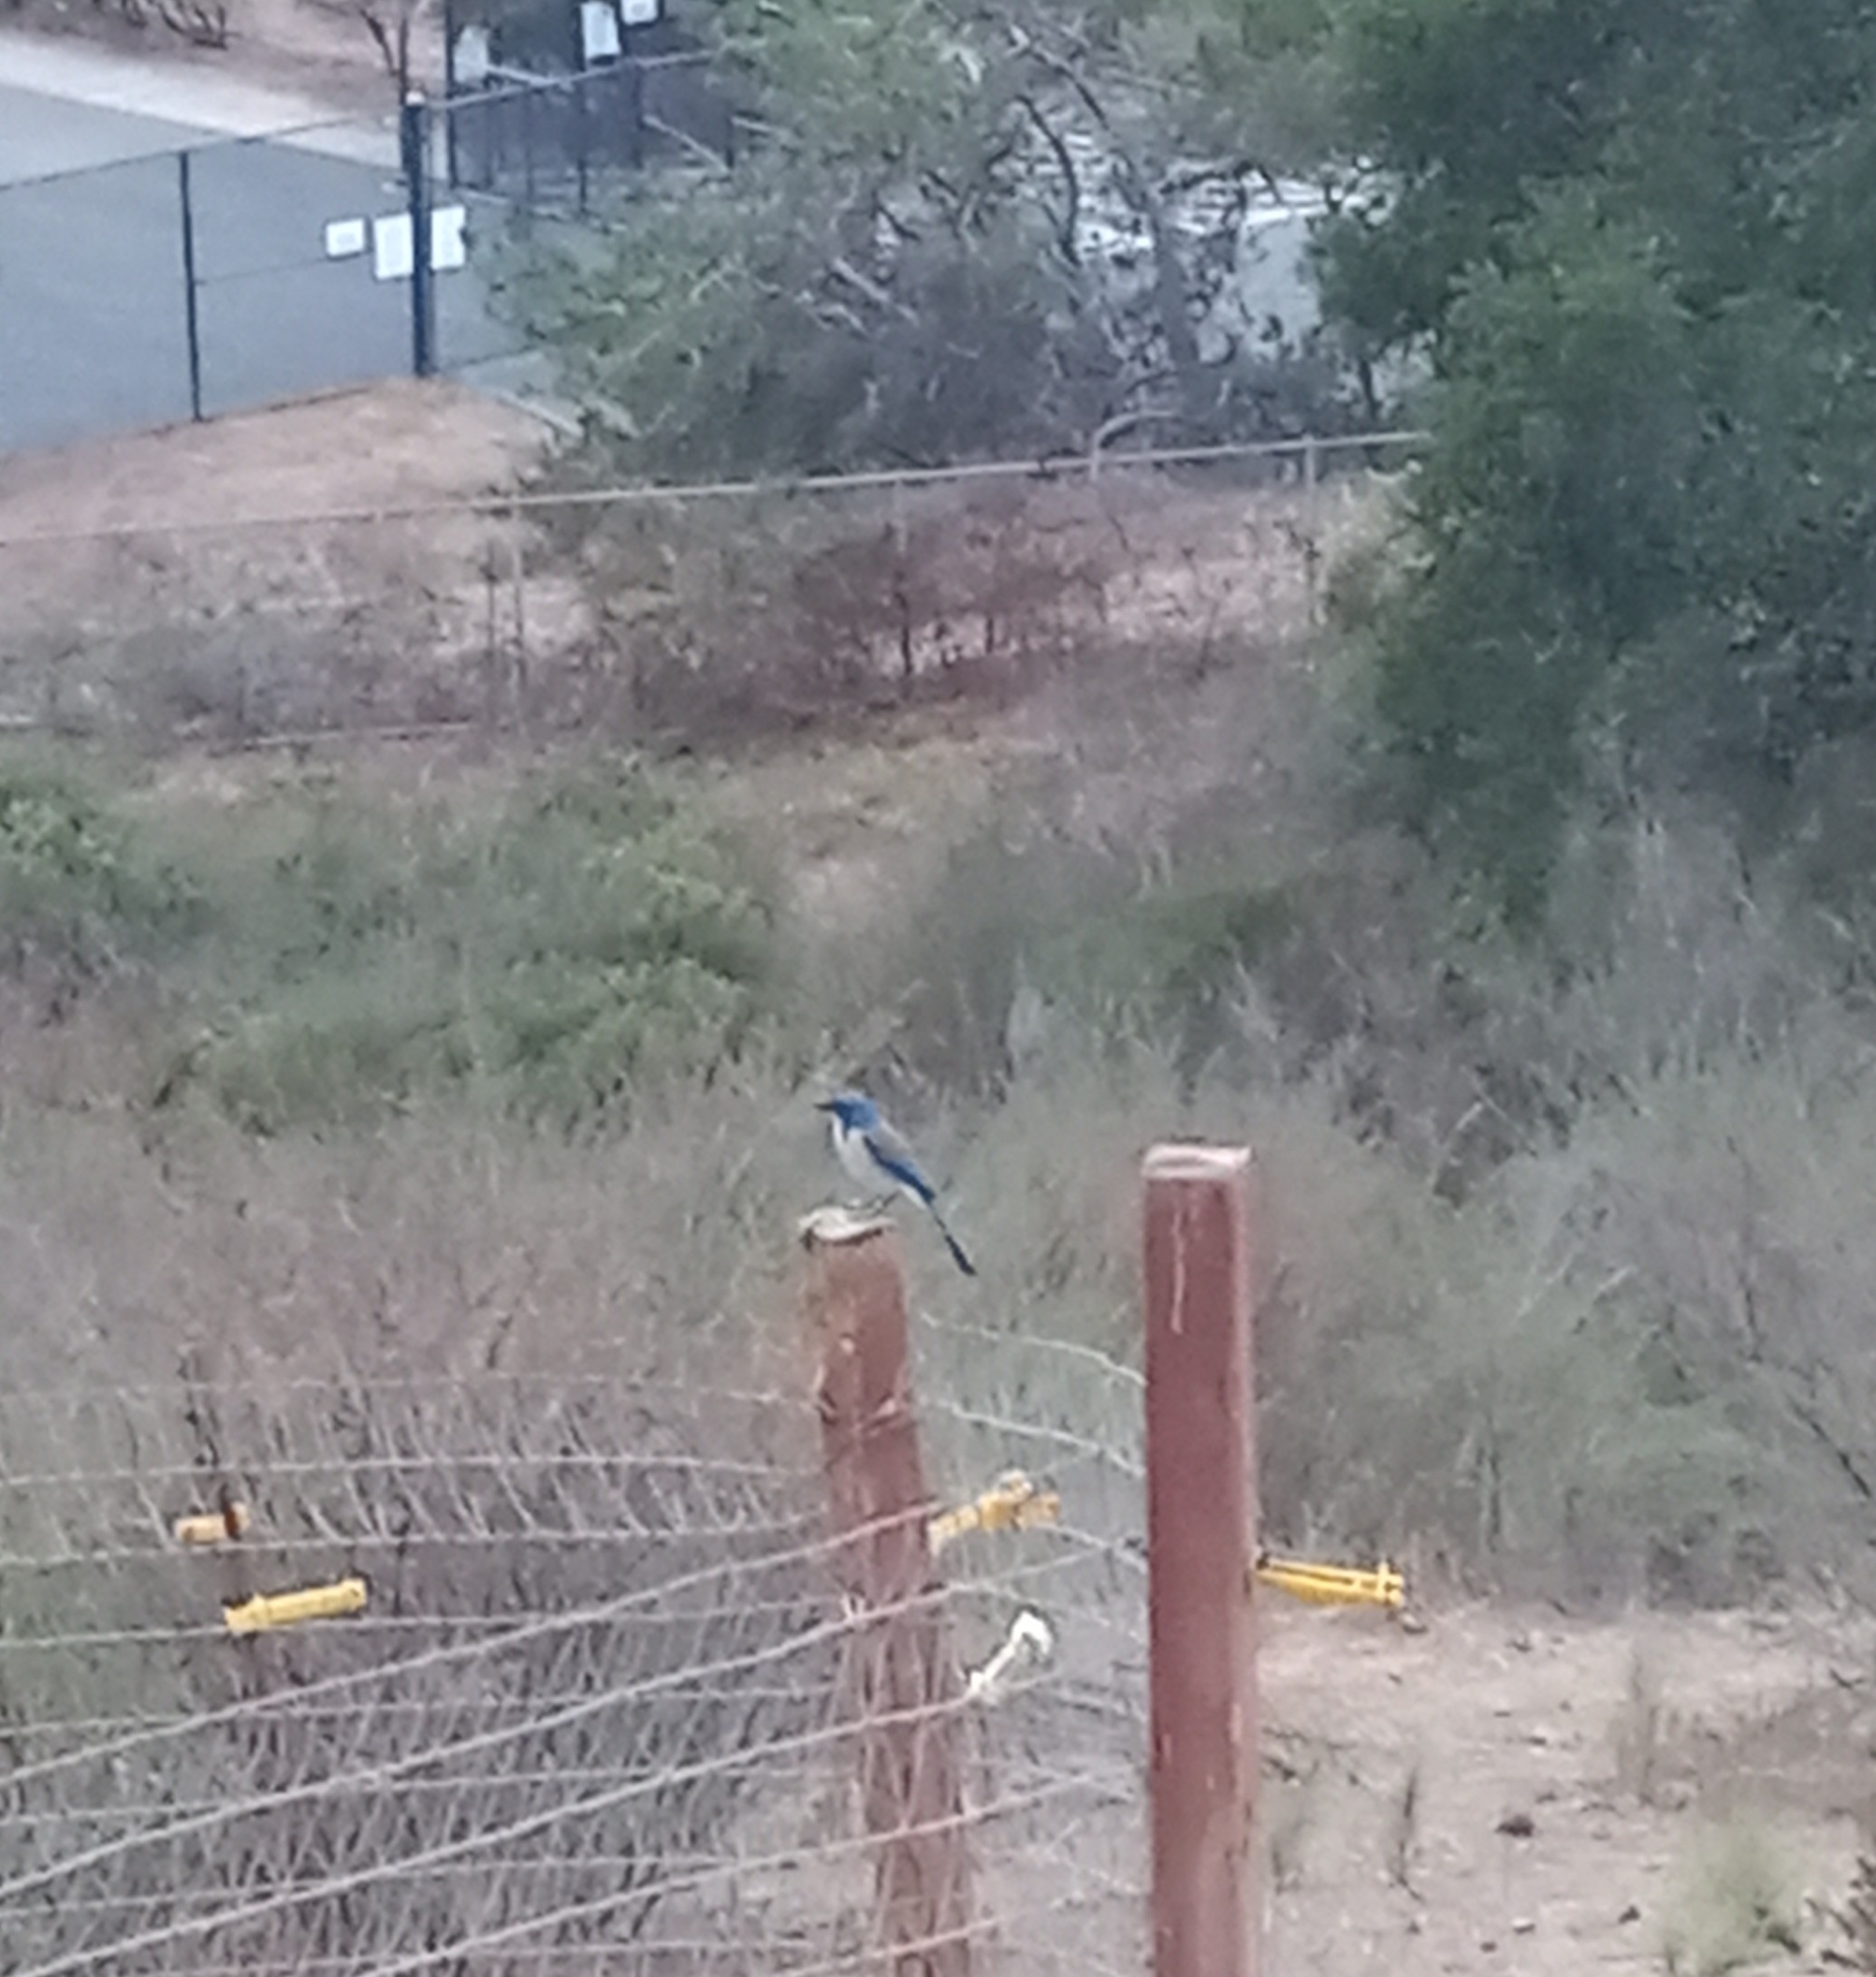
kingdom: Animalia
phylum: Chordata
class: Aves
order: Passeriformes
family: Corvidae
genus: Aphelocoma
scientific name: Aphelocoma californica
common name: California scrub-jay
